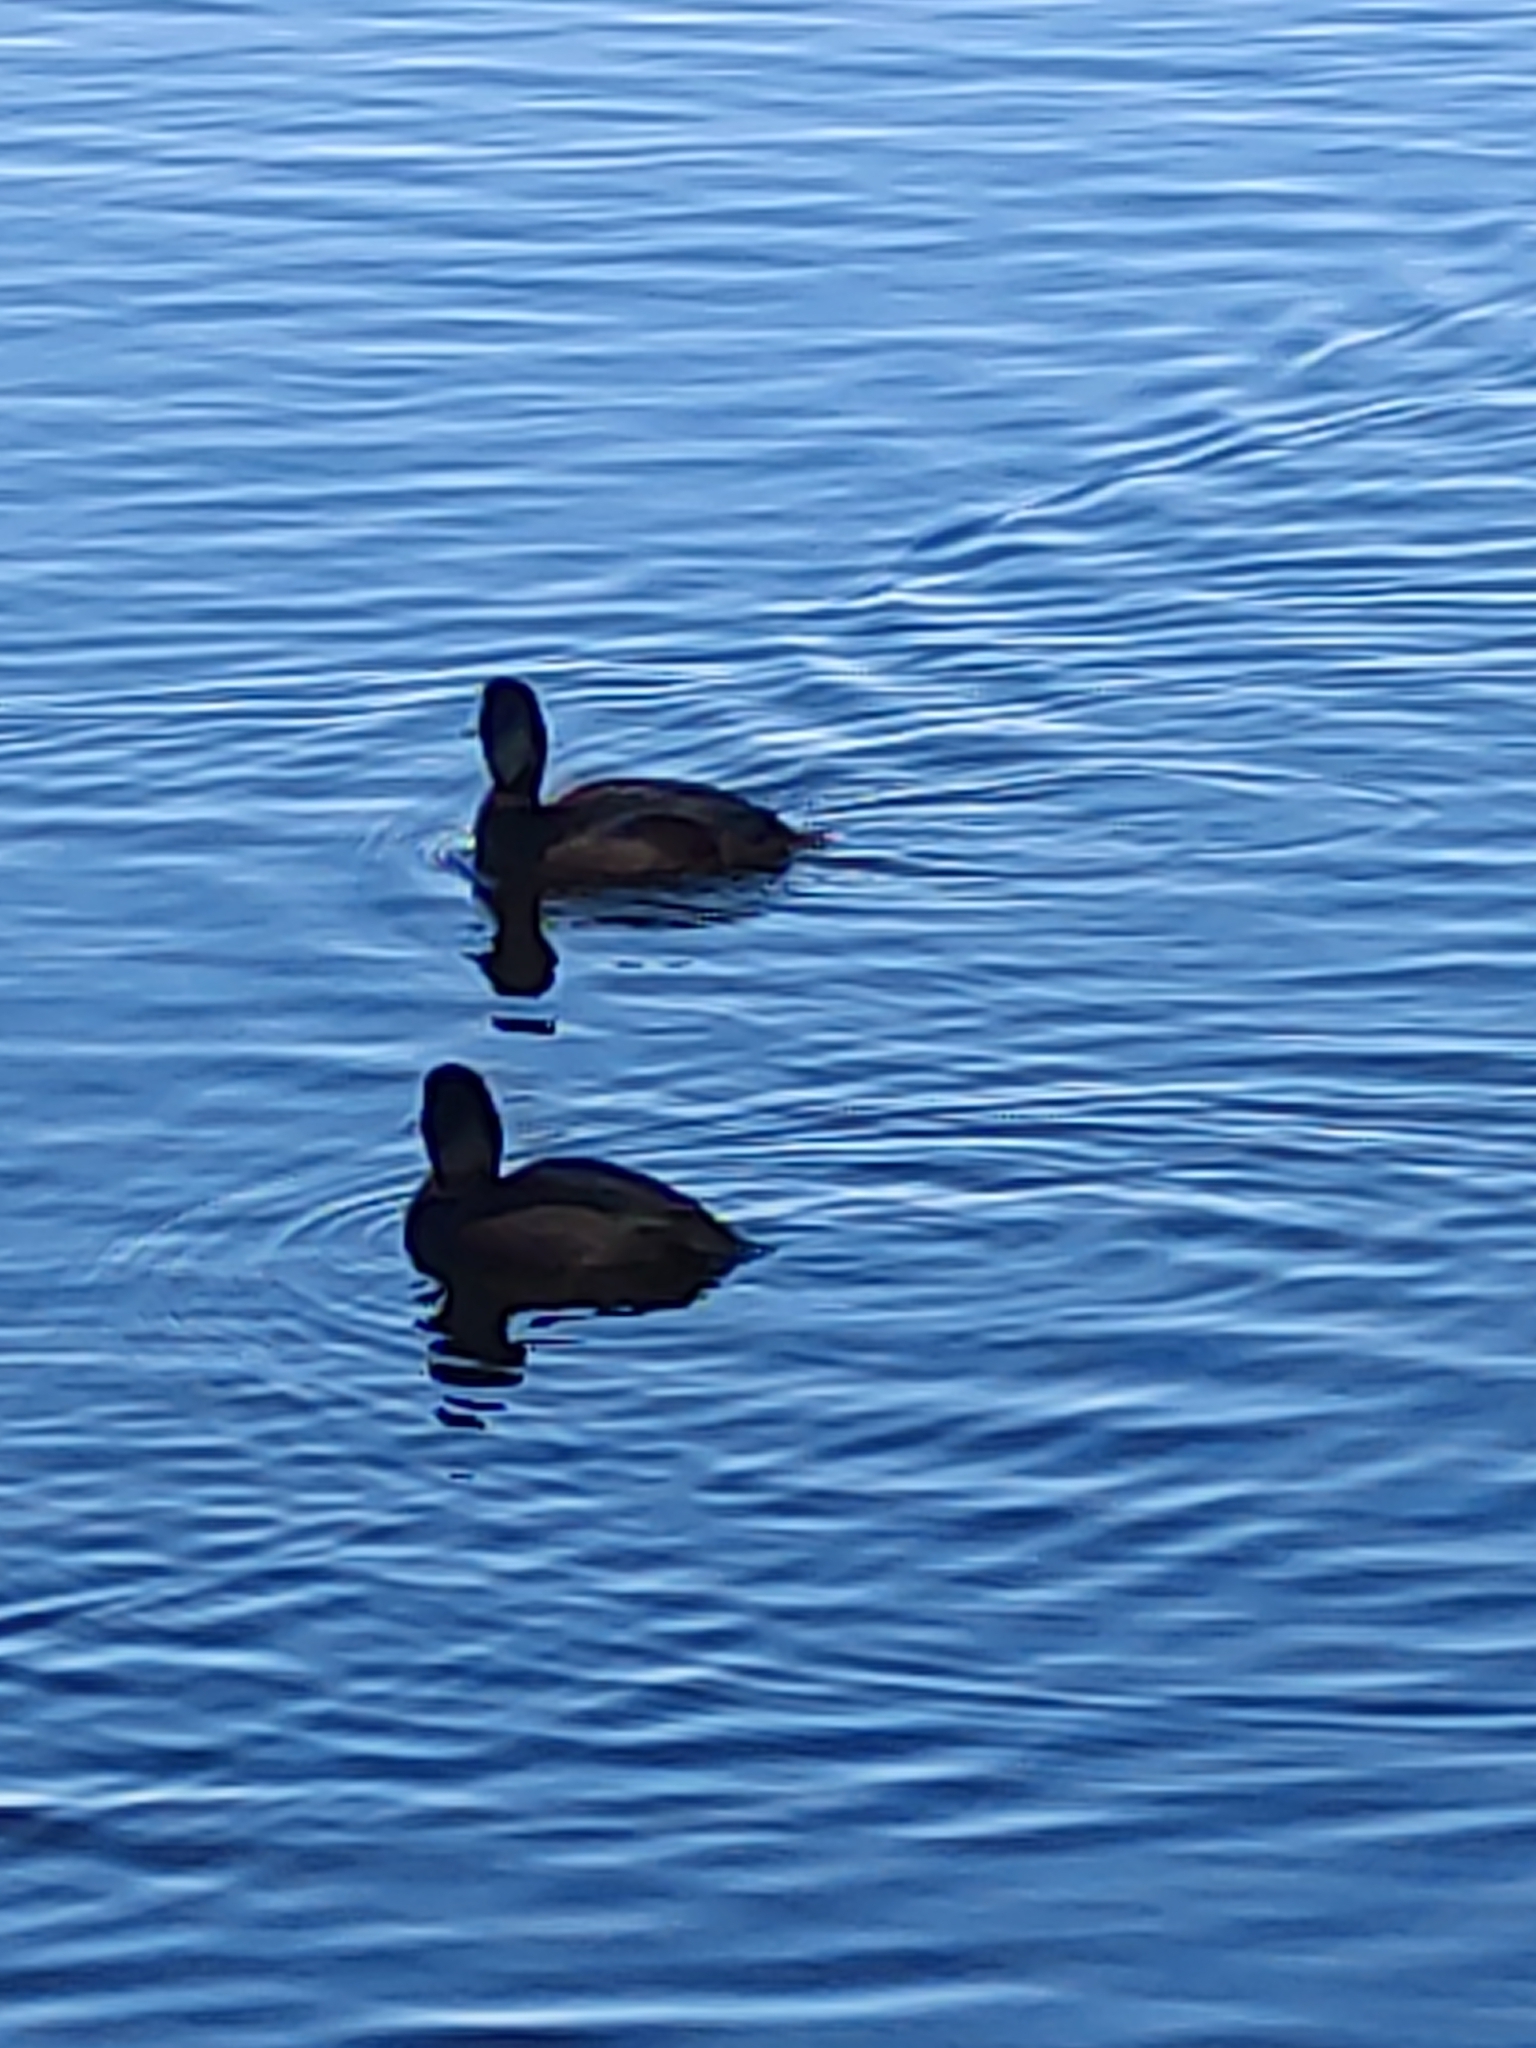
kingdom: Animalia
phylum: Chordata
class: Aves
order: Anseriformes
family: Anatidae
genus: Aythya
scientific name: Aythya novaeseelandiae
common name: New zealand scaup
